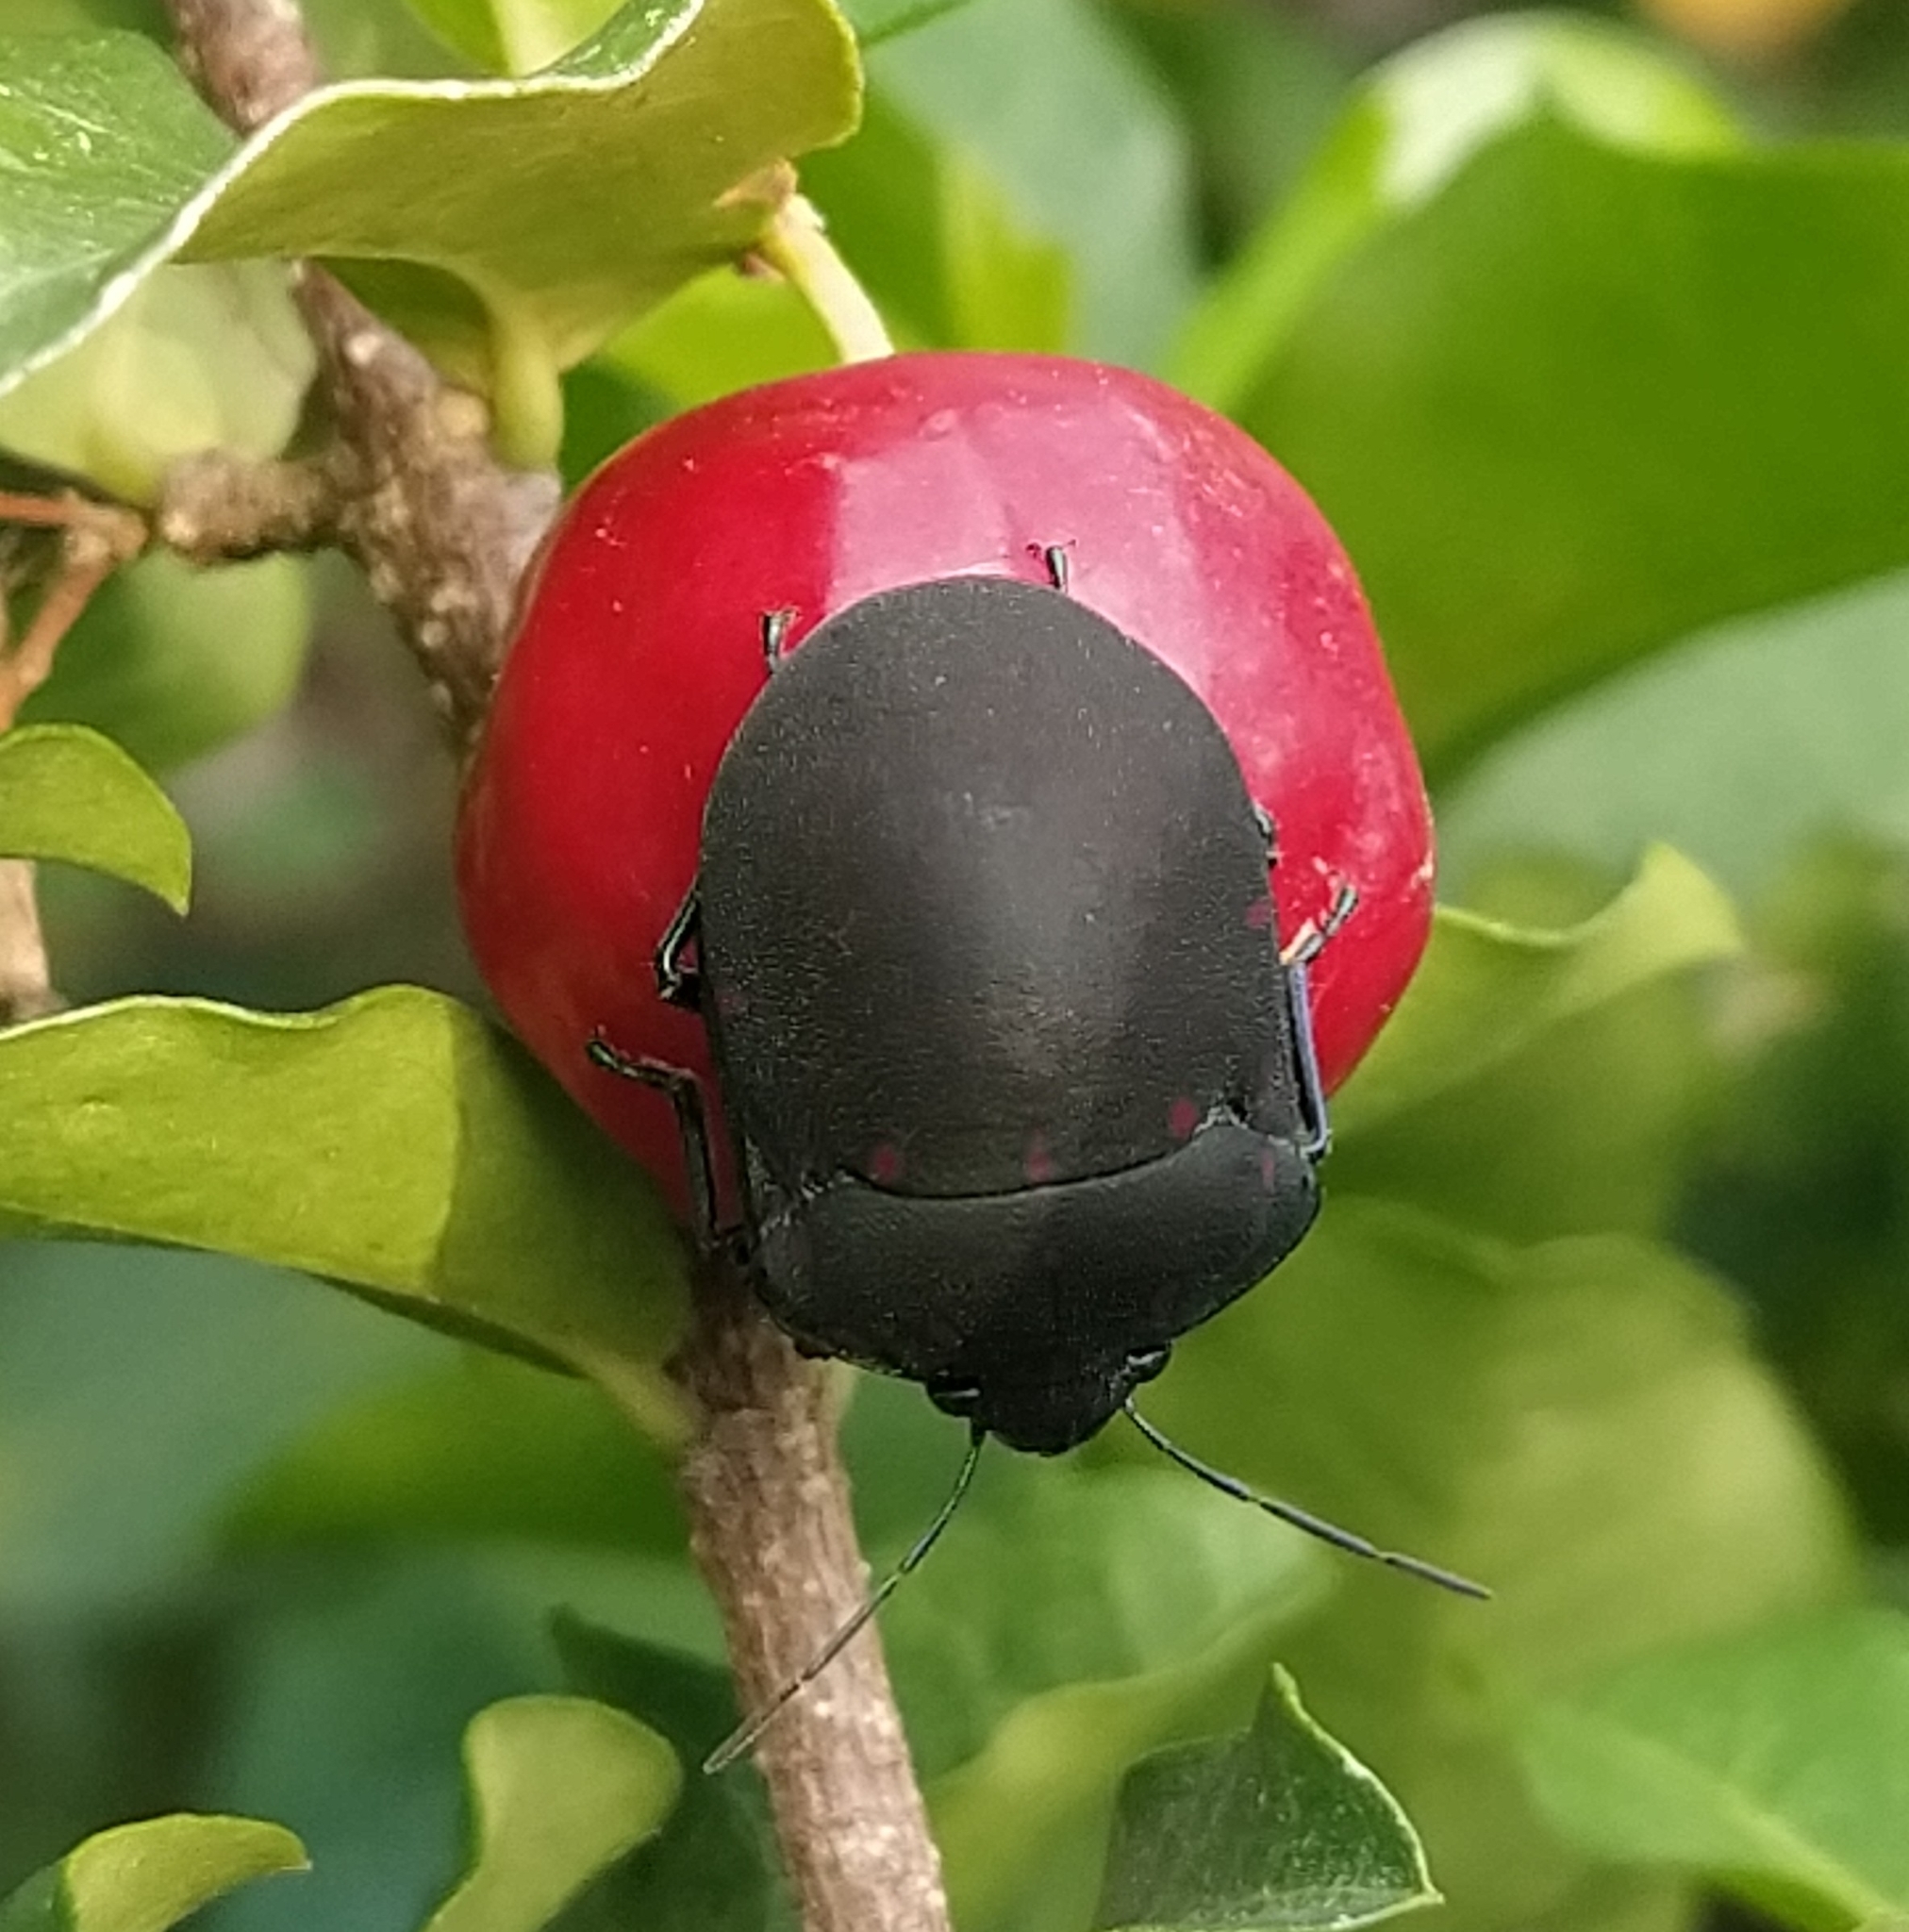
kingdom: Animalia
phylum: Arthropoda
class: Insecta
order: Hemiptera
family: Scutelleridae
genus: Pachycoris
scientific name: Pachycoris torridus
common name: Torrid jewel bug
